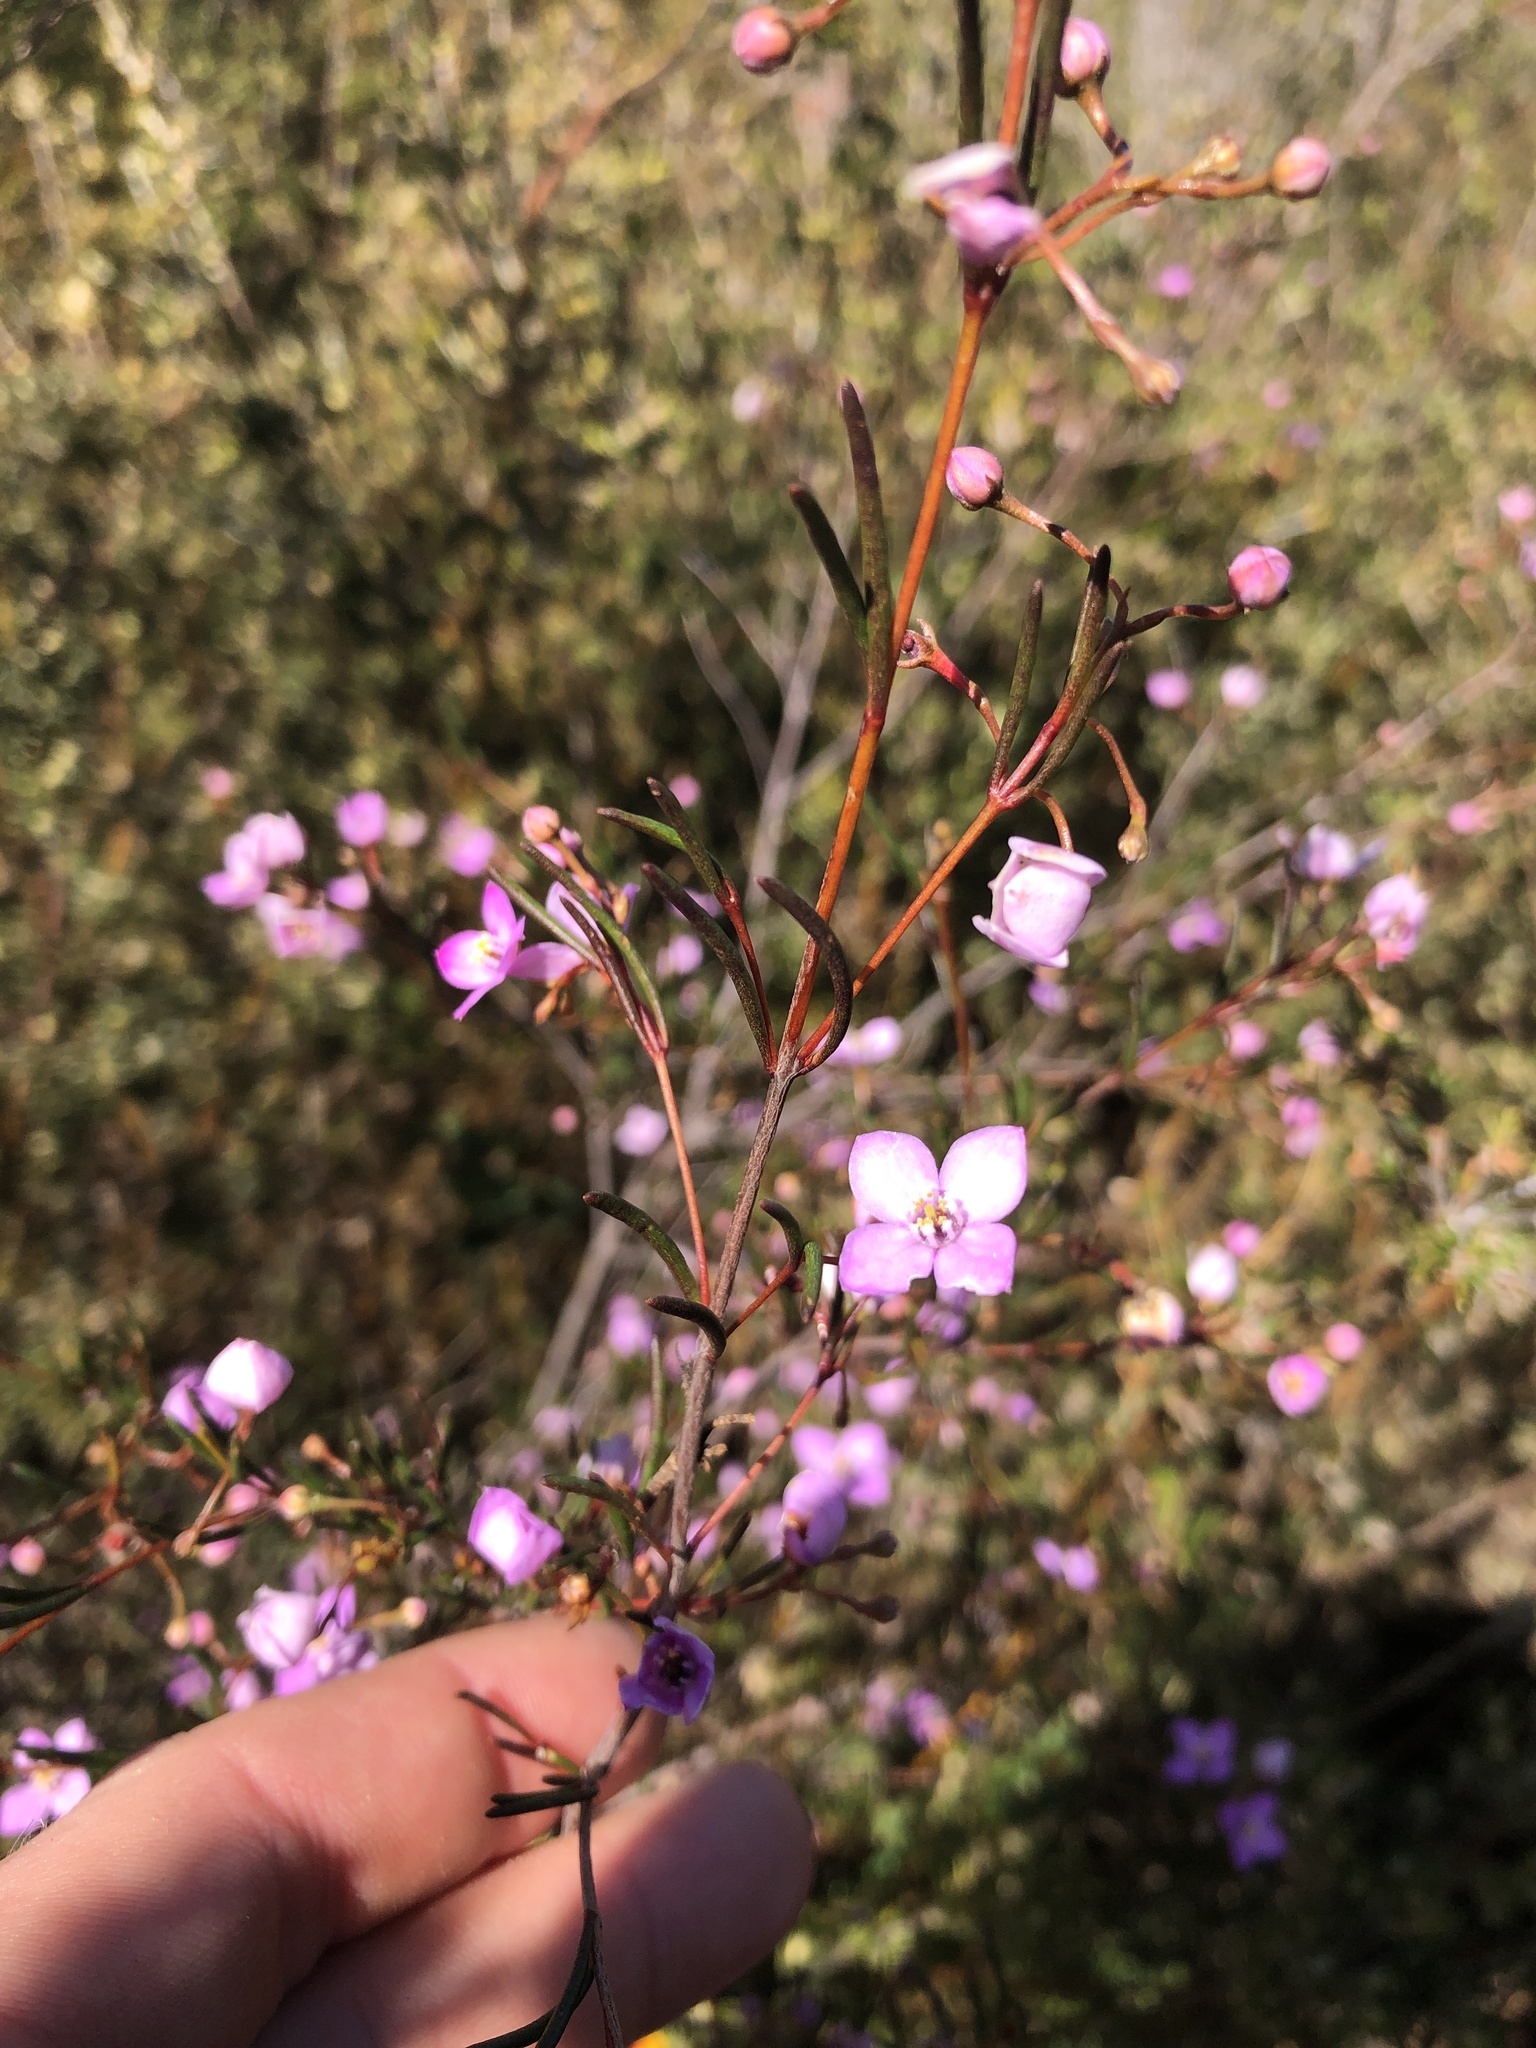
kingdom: Plantae
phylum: Tracheophyta
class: Magnoliopsida
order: Sapindales
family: Rutaceae
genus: Boronia
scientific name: Boronia filifolia
